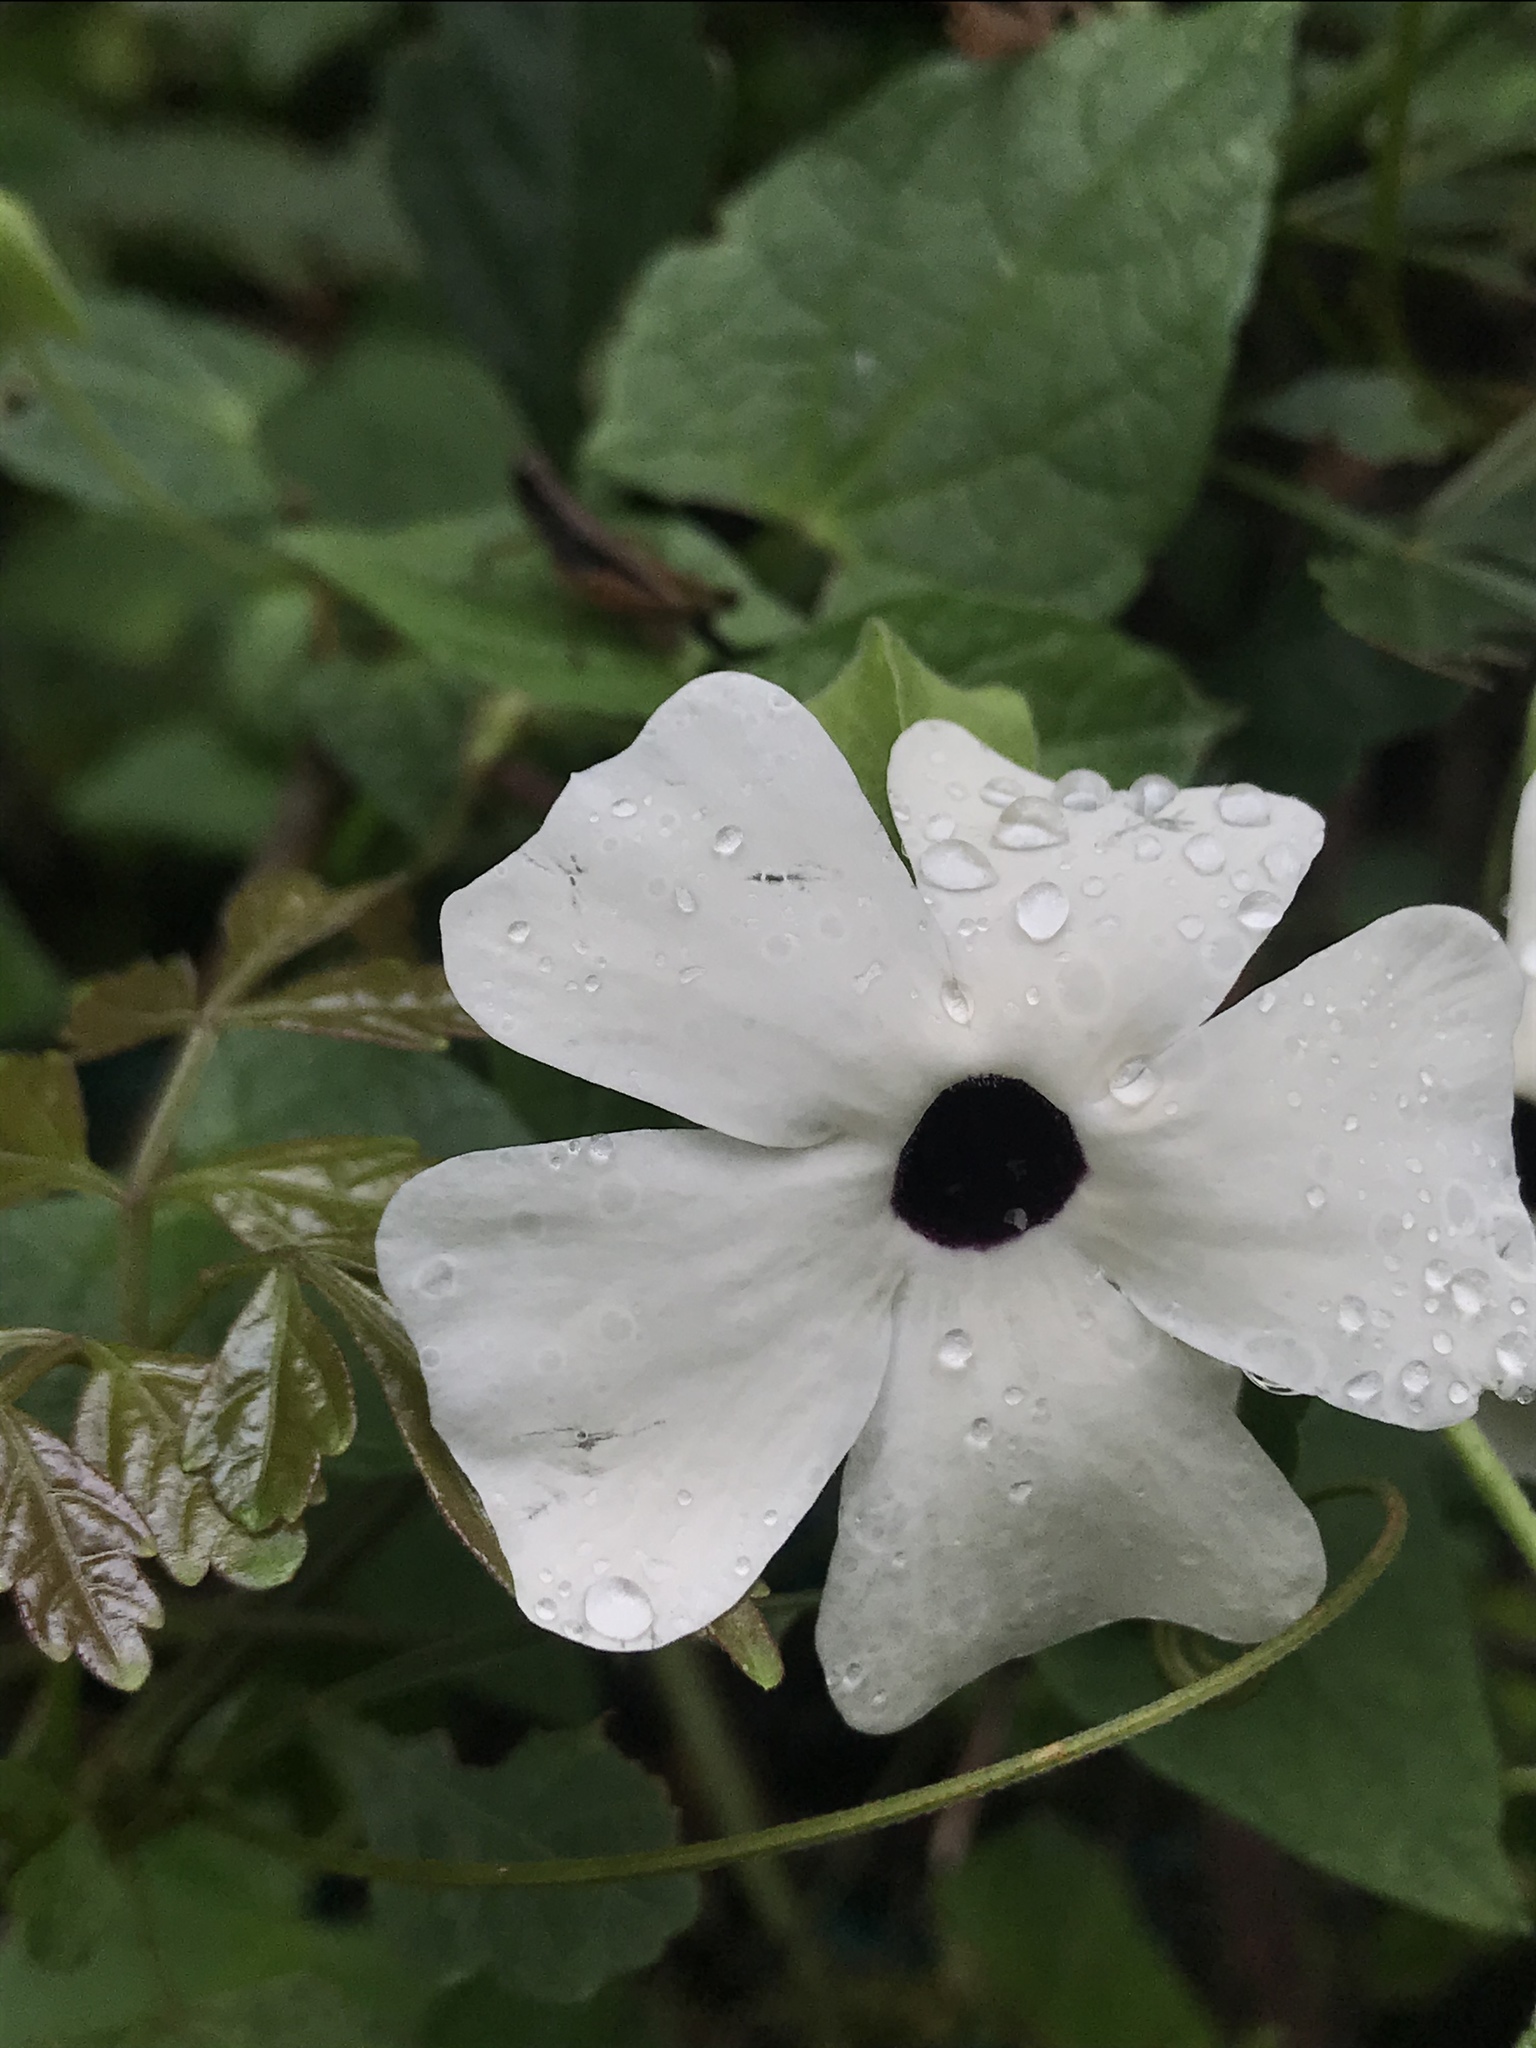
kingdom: Plantae
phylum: Tracheophyta
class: Magnoliopsida
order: Lamiales
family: Acanthaceae
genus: Thunbergia
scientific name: Thunbergia alata
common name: Blackeyed susan vine
